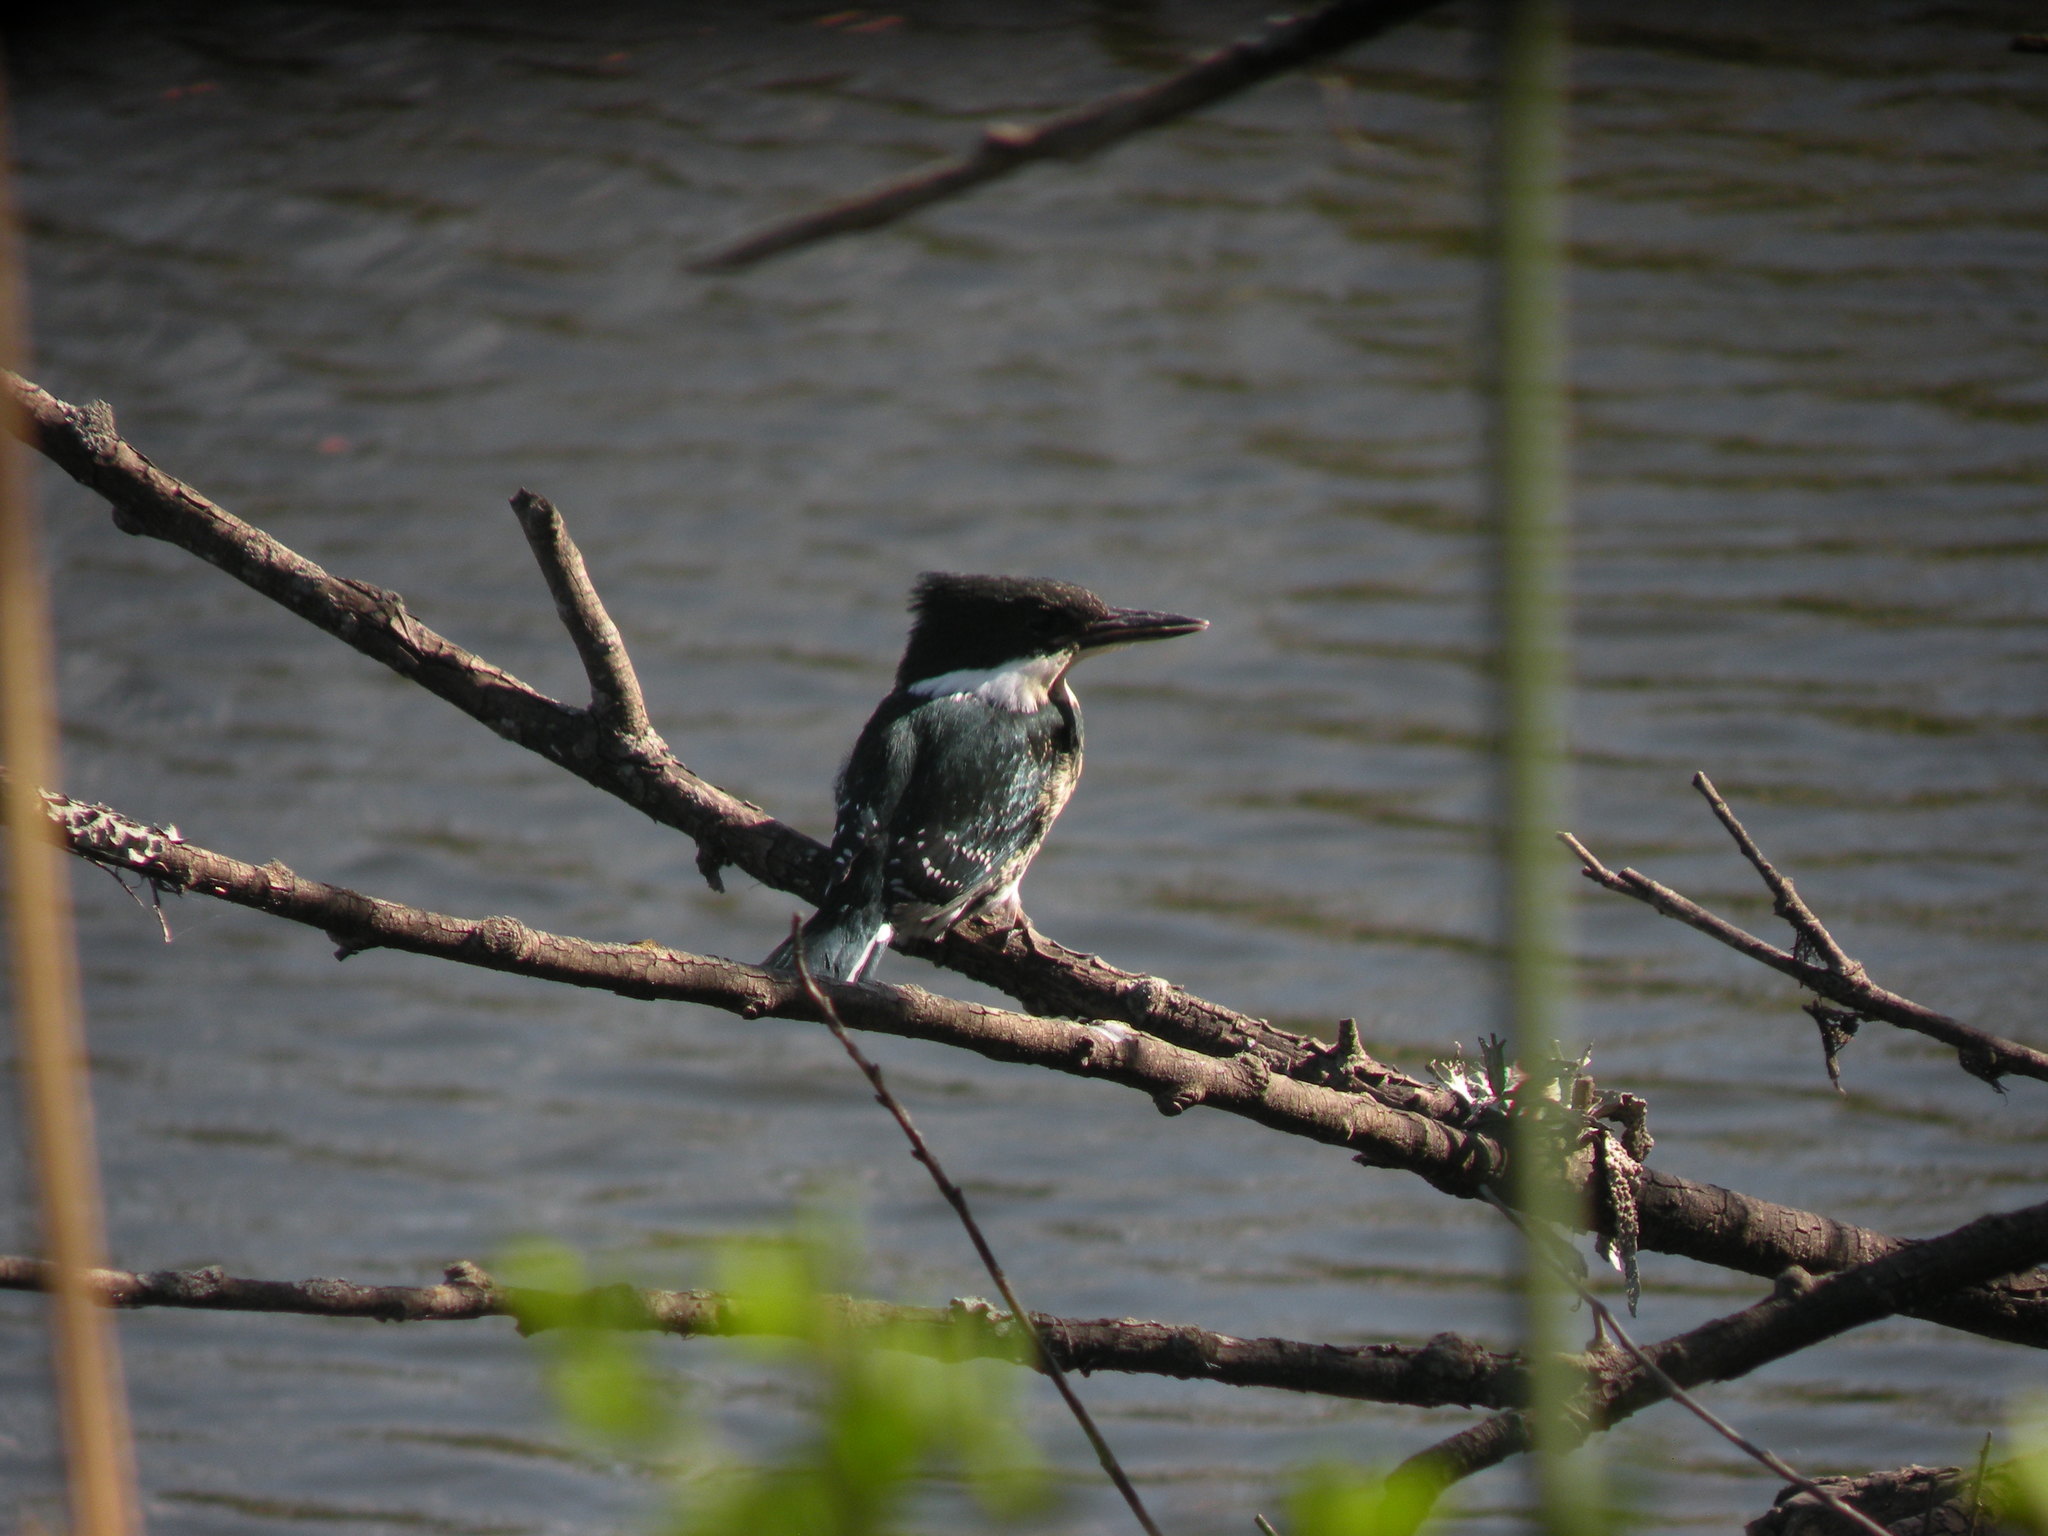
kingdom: Animalia
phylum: Chordata
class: Aves
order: Coraciiformes
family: Alcedinidae
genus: Chloroceryle
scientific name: Chloroceryle americana
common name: Green kingfisher
